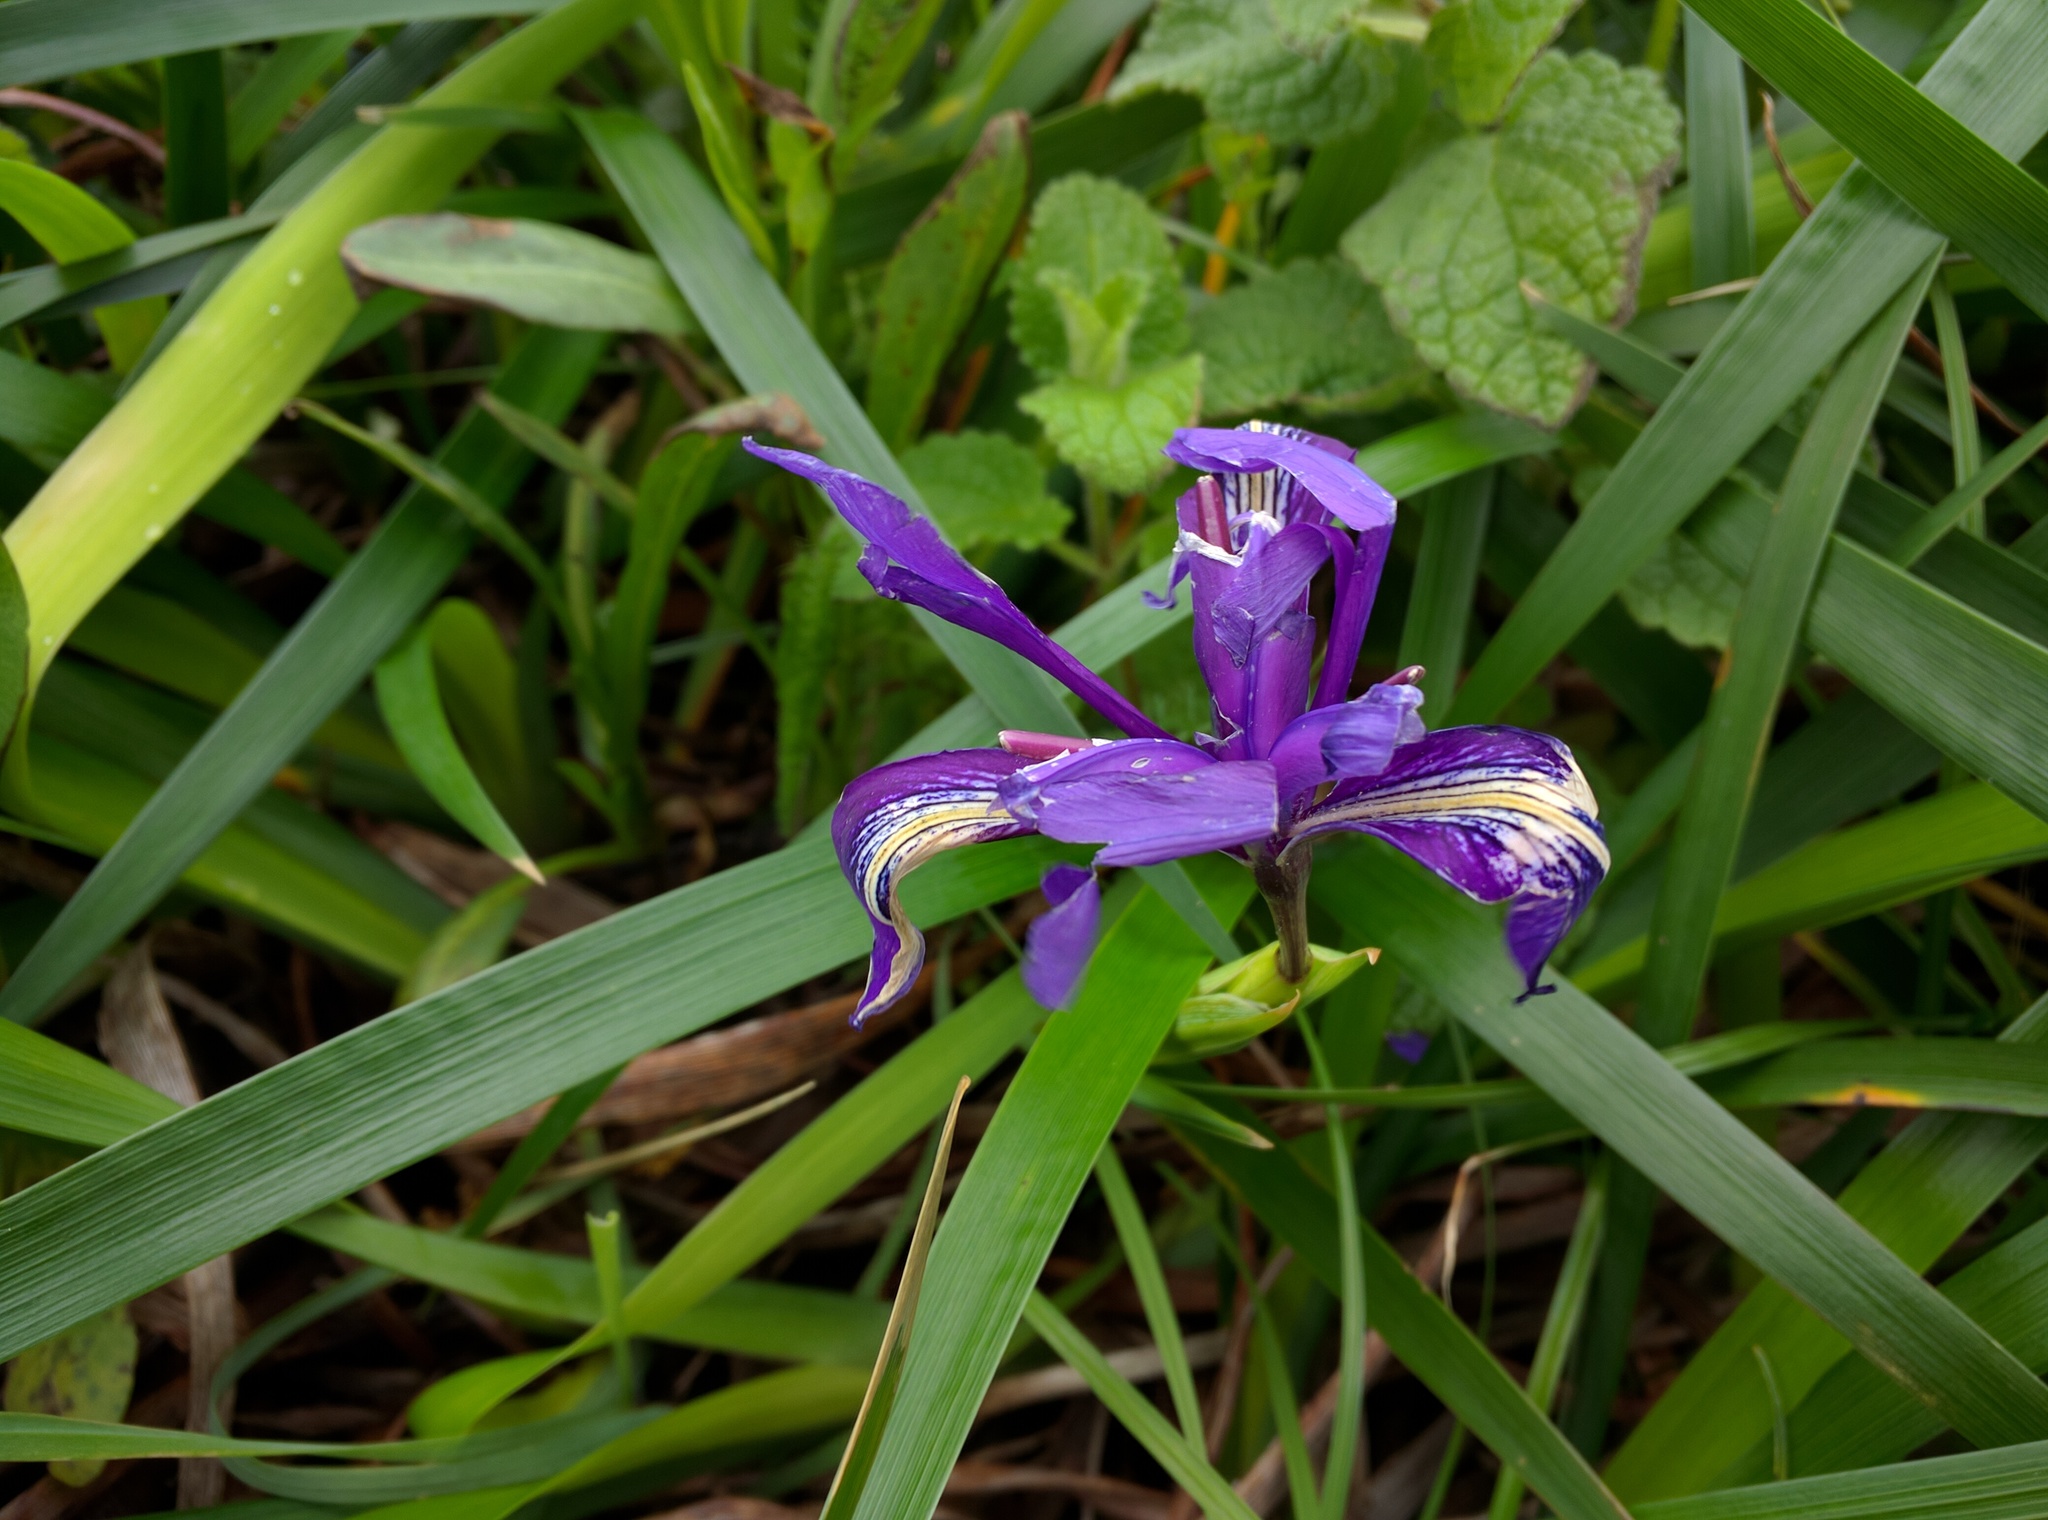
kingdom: Plantae
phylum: Tracheophyta
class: Liliopsida
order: Asparagales
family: Iridaceae
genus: Iris
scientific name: Iris douglasiana
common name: Marin iris
